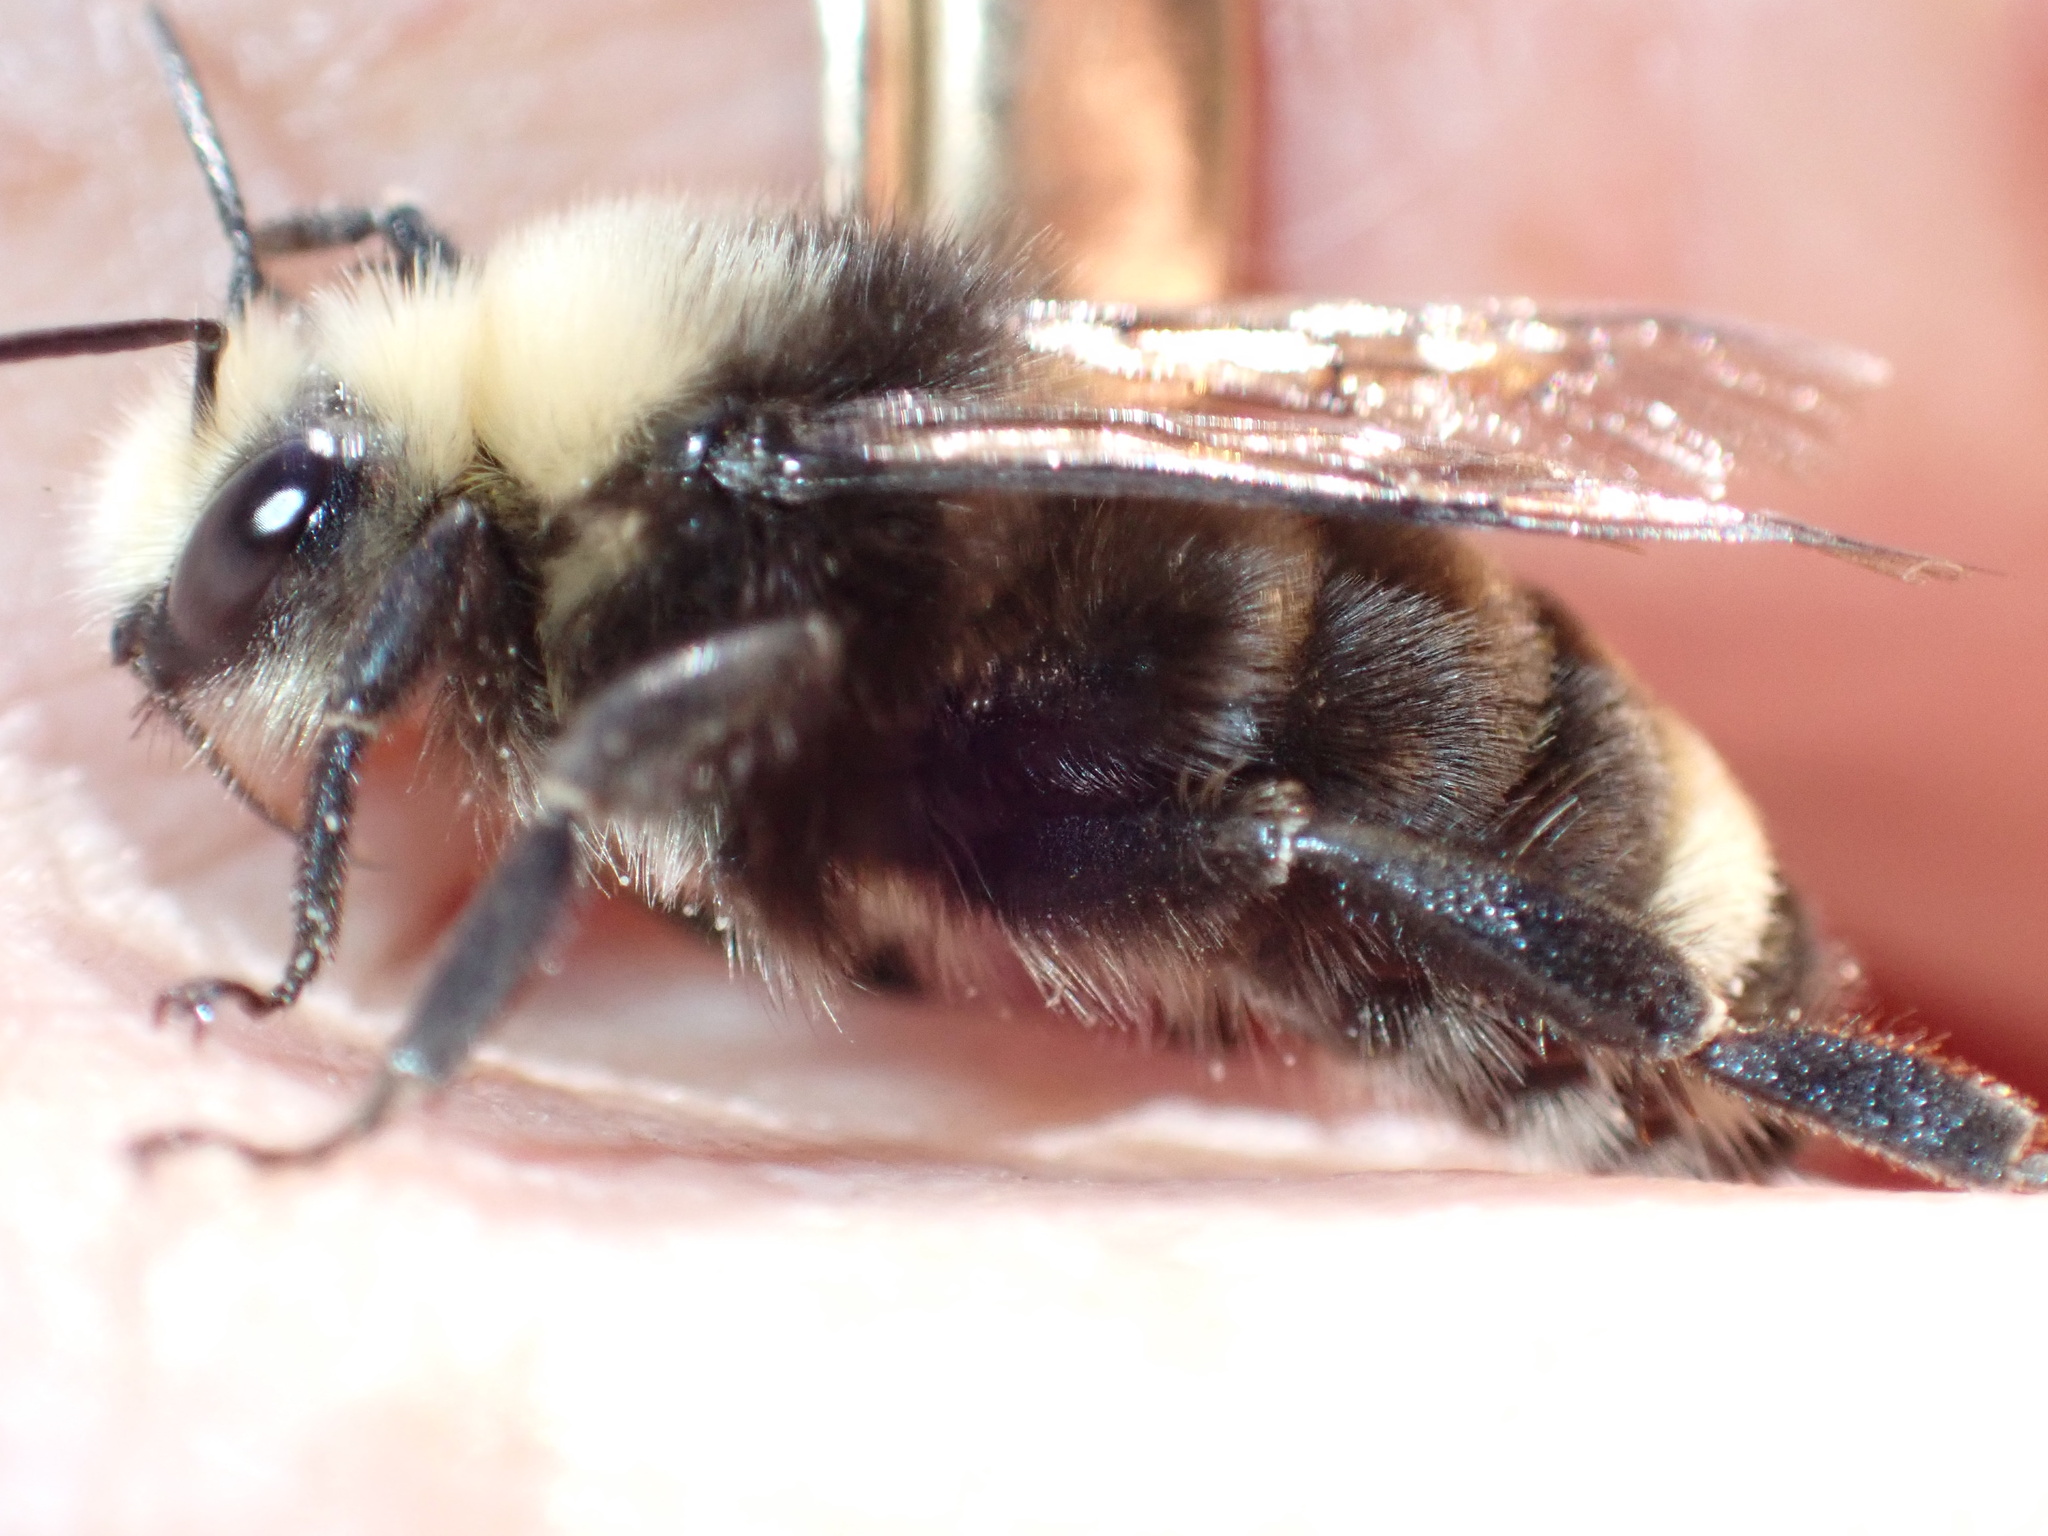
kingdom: Animalia
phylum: Arthropoda
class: Insecta
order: Hymenoptera
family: Apidae
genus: Bombus
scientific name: Bombus vosnesenskii
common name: Vosnesensky bumble bee
